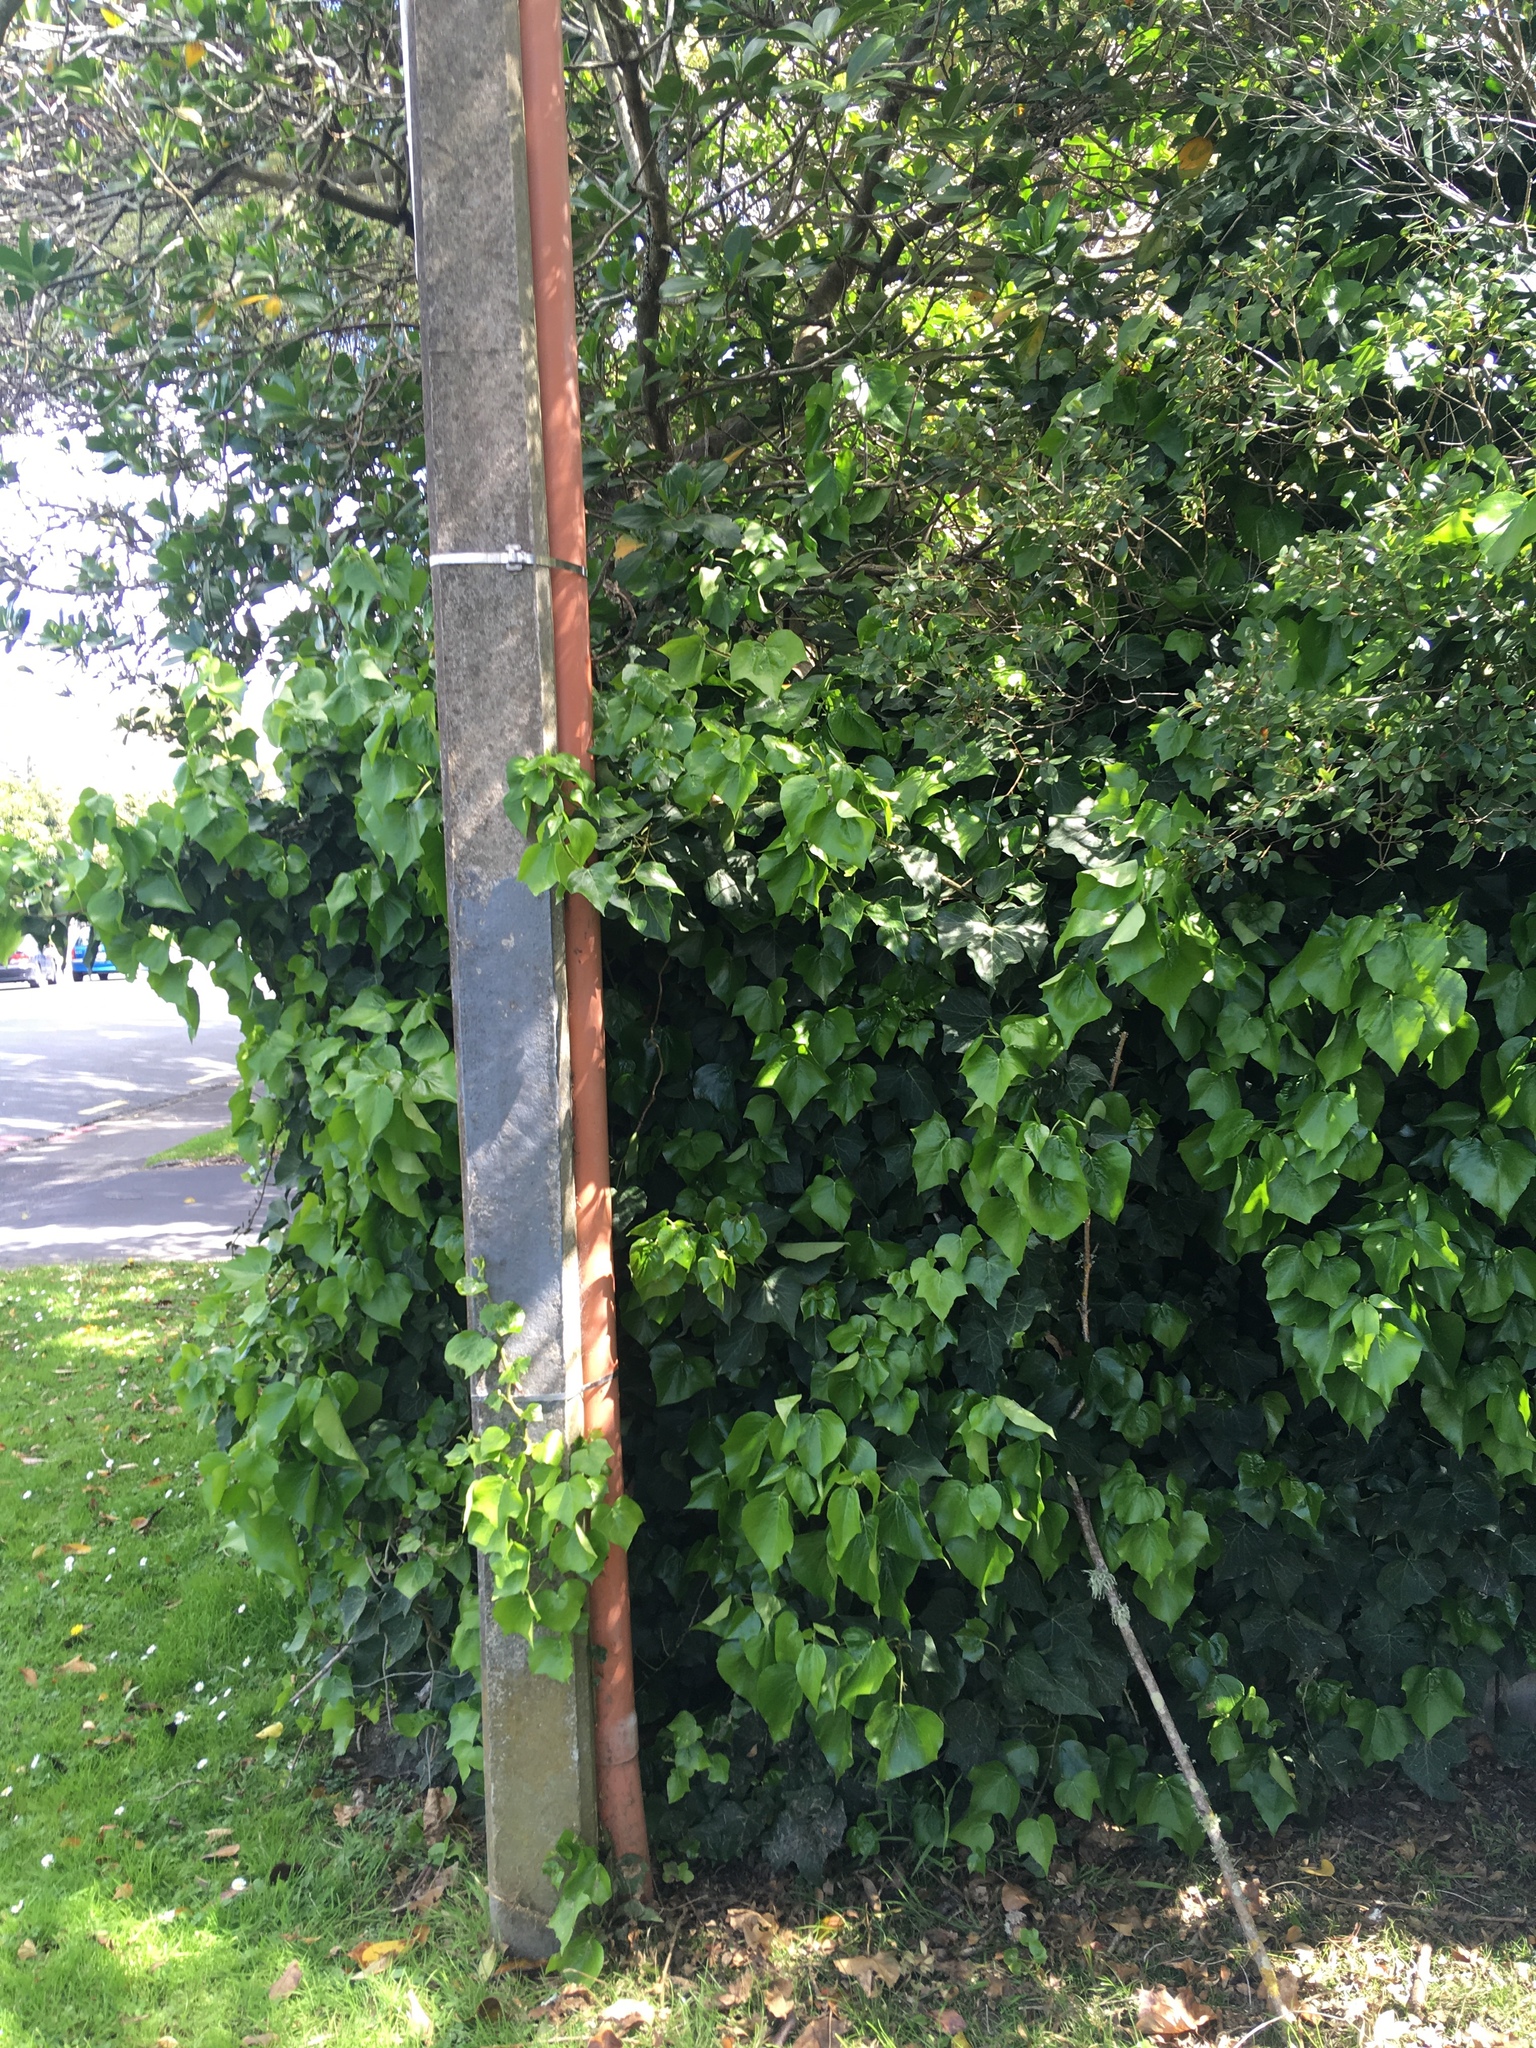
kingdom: Plantae
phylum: Tracheophyta
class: Magnoliopsida
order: Apiales
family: Araliaceae
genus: Hedera
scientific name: Hedera canariensis
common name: Madeira ivy
